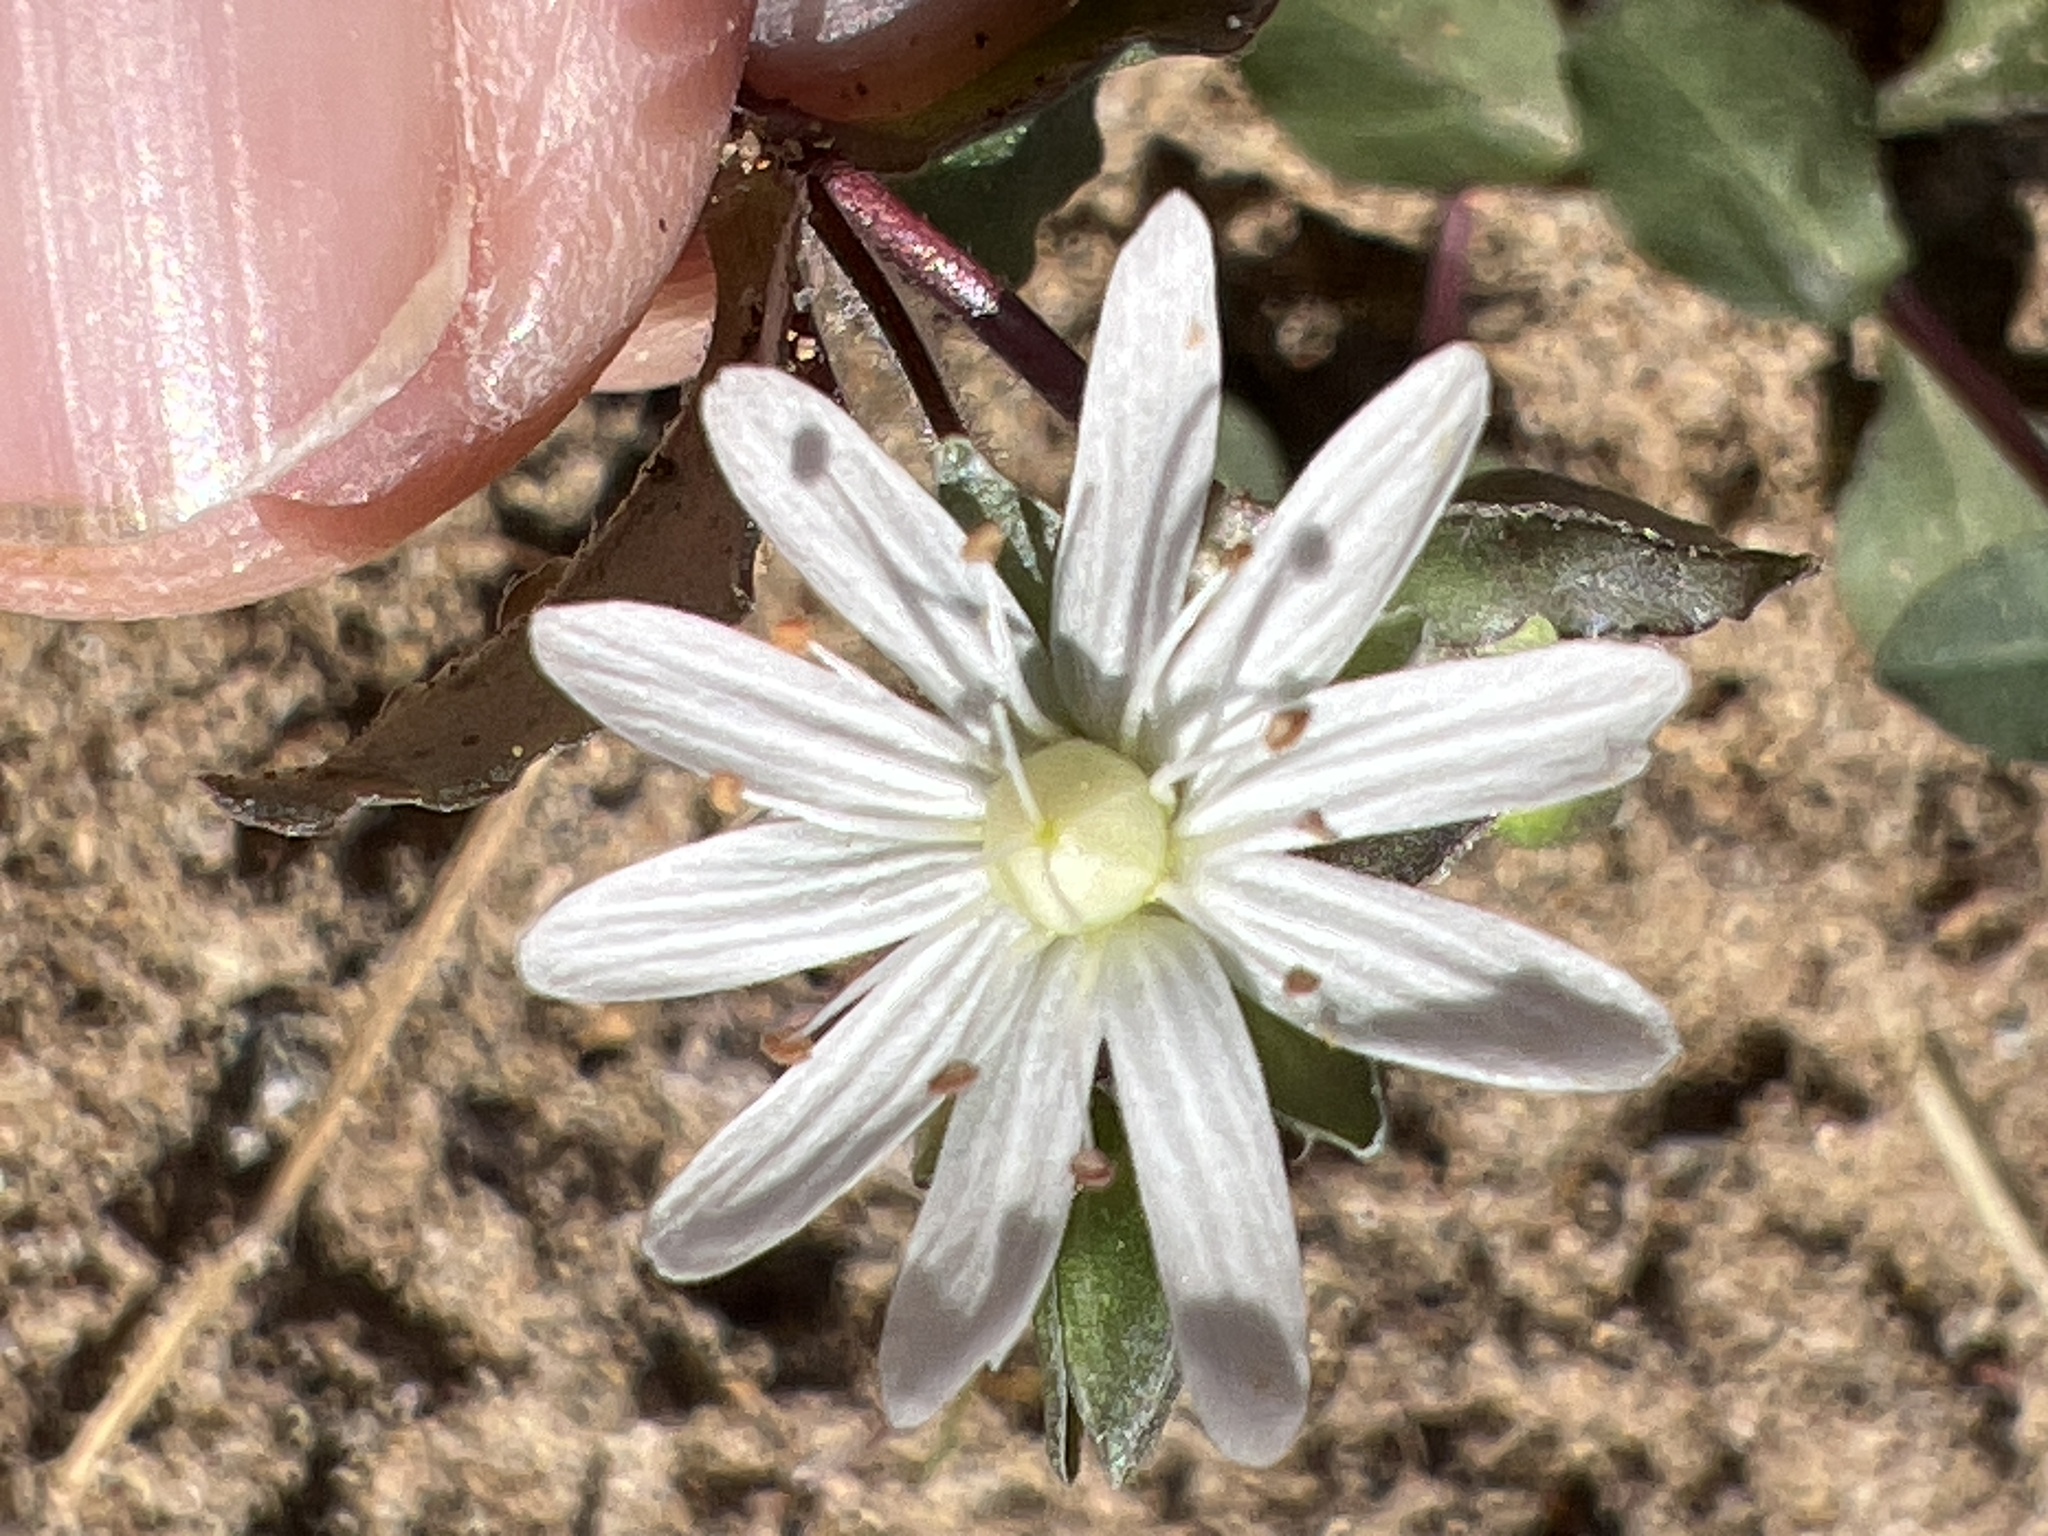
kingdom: Plantae
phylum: Tracheophyta
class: Magnoliopsida
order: Caryophyllales
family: Caryophyllaceae
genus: Stellaria
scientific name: Stellaria pubera
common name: Star chickweed
